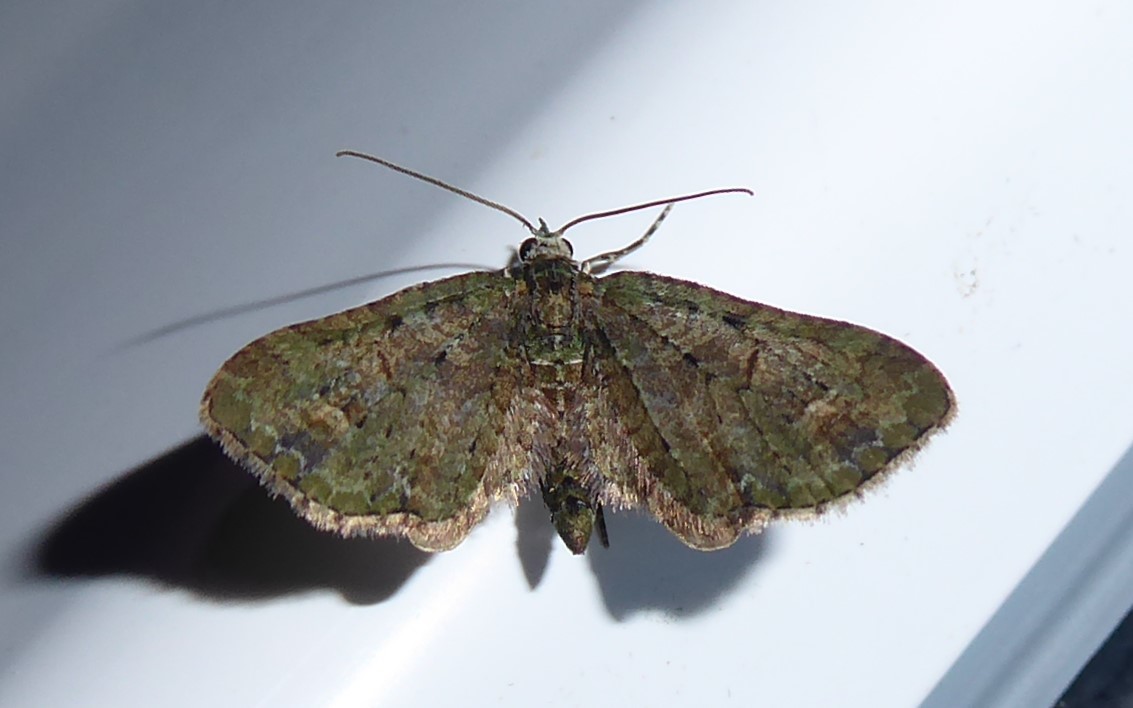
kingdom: Animalia
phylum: Arthropoda
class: Insecta
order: Lepidoptera
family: Geometridae
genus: Idaea
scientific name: Idaea mutanda
